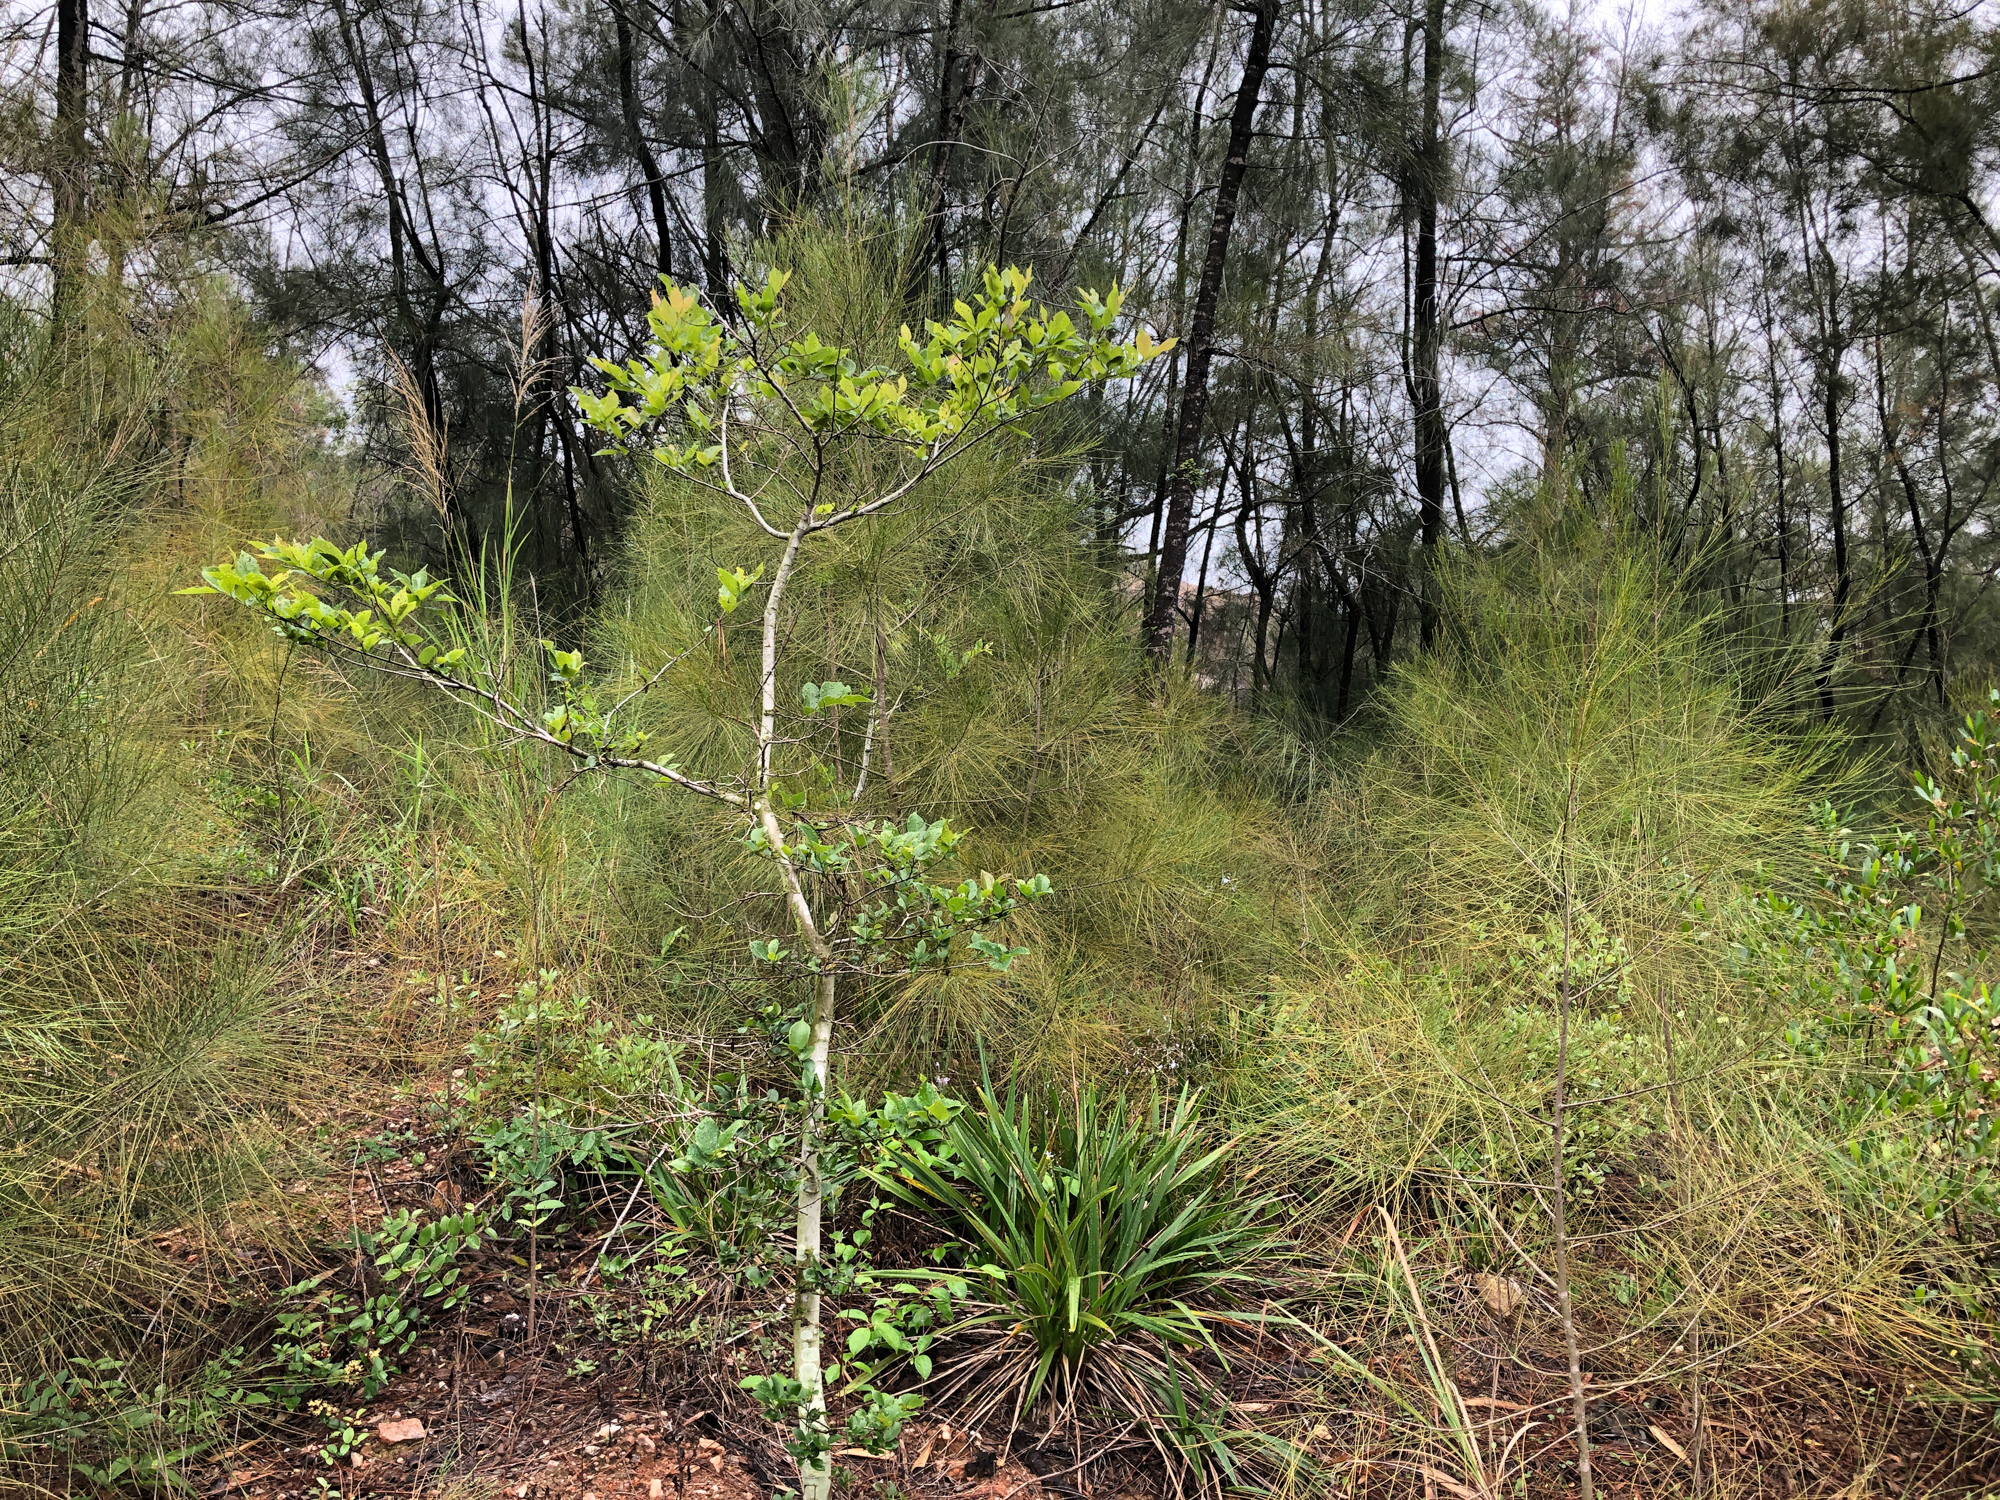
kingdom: Plantae
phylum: Tracheophyta
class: Magnoliopsida
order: Rosales
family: Cannabaceae
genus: Celtis
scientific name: Celtis sinensis
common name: Chinese hackberry
